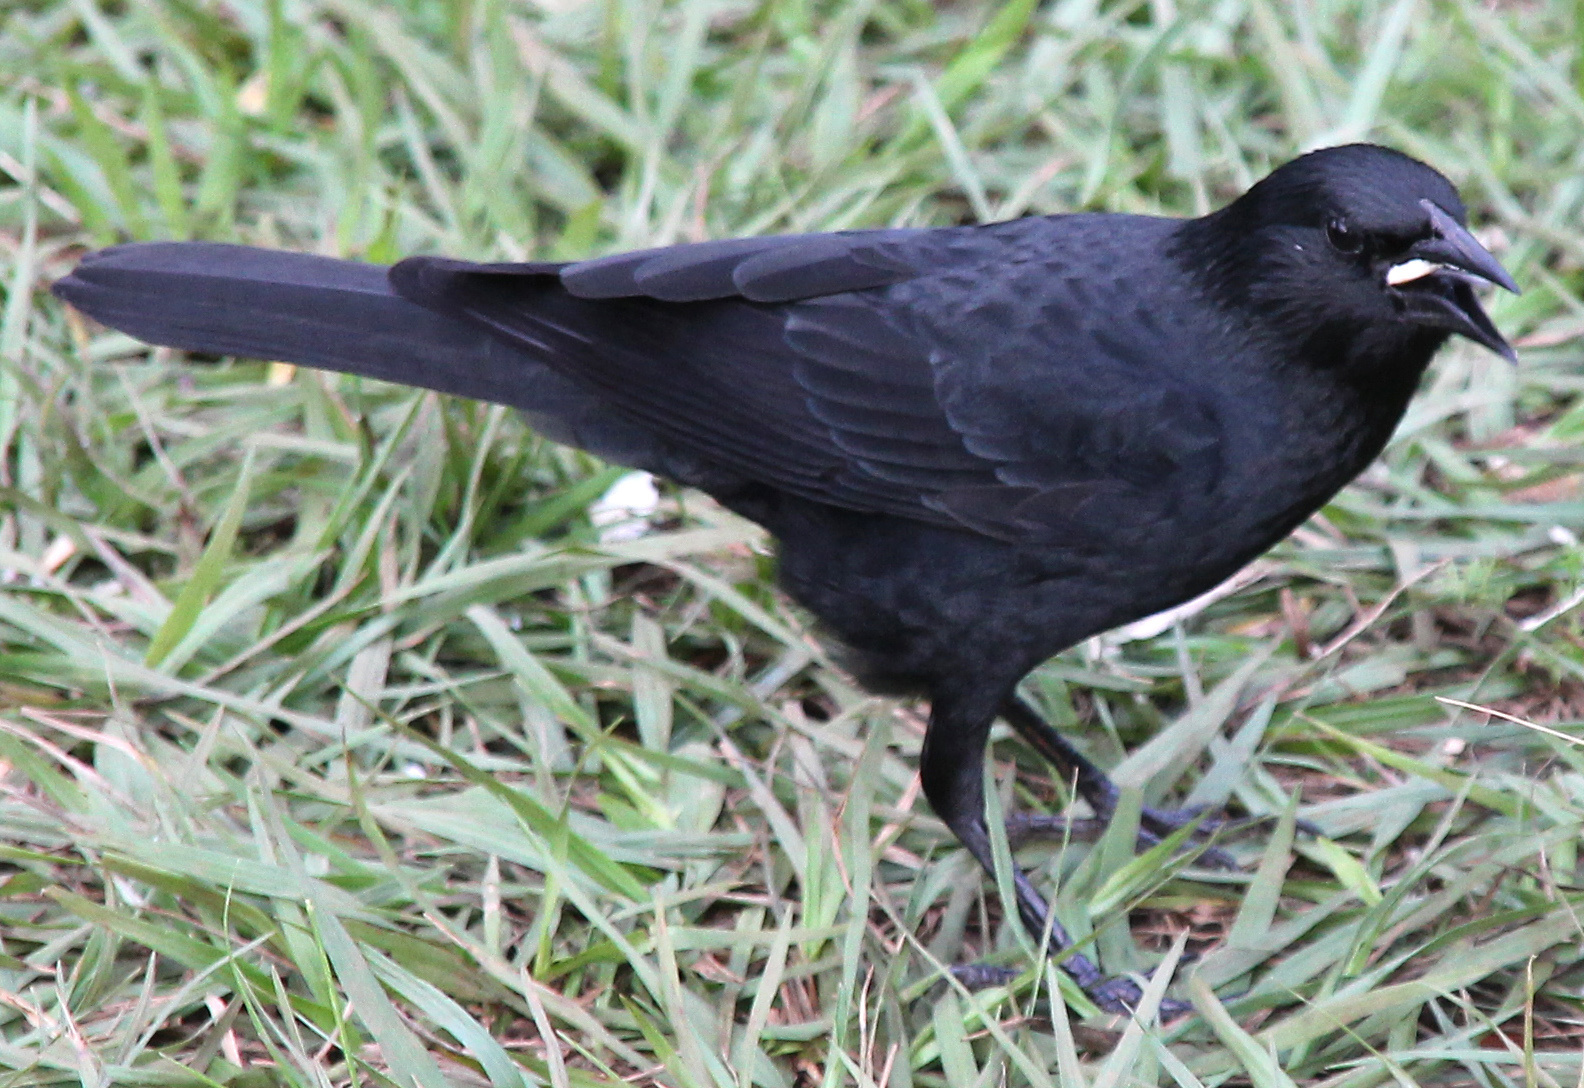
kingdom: Animalia
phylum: Chordata
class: Aves
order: Passeriformes
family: Icteridae
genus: Gnorimopsar
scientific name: Gnorimopsar chopi
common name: Chopi blackbird
